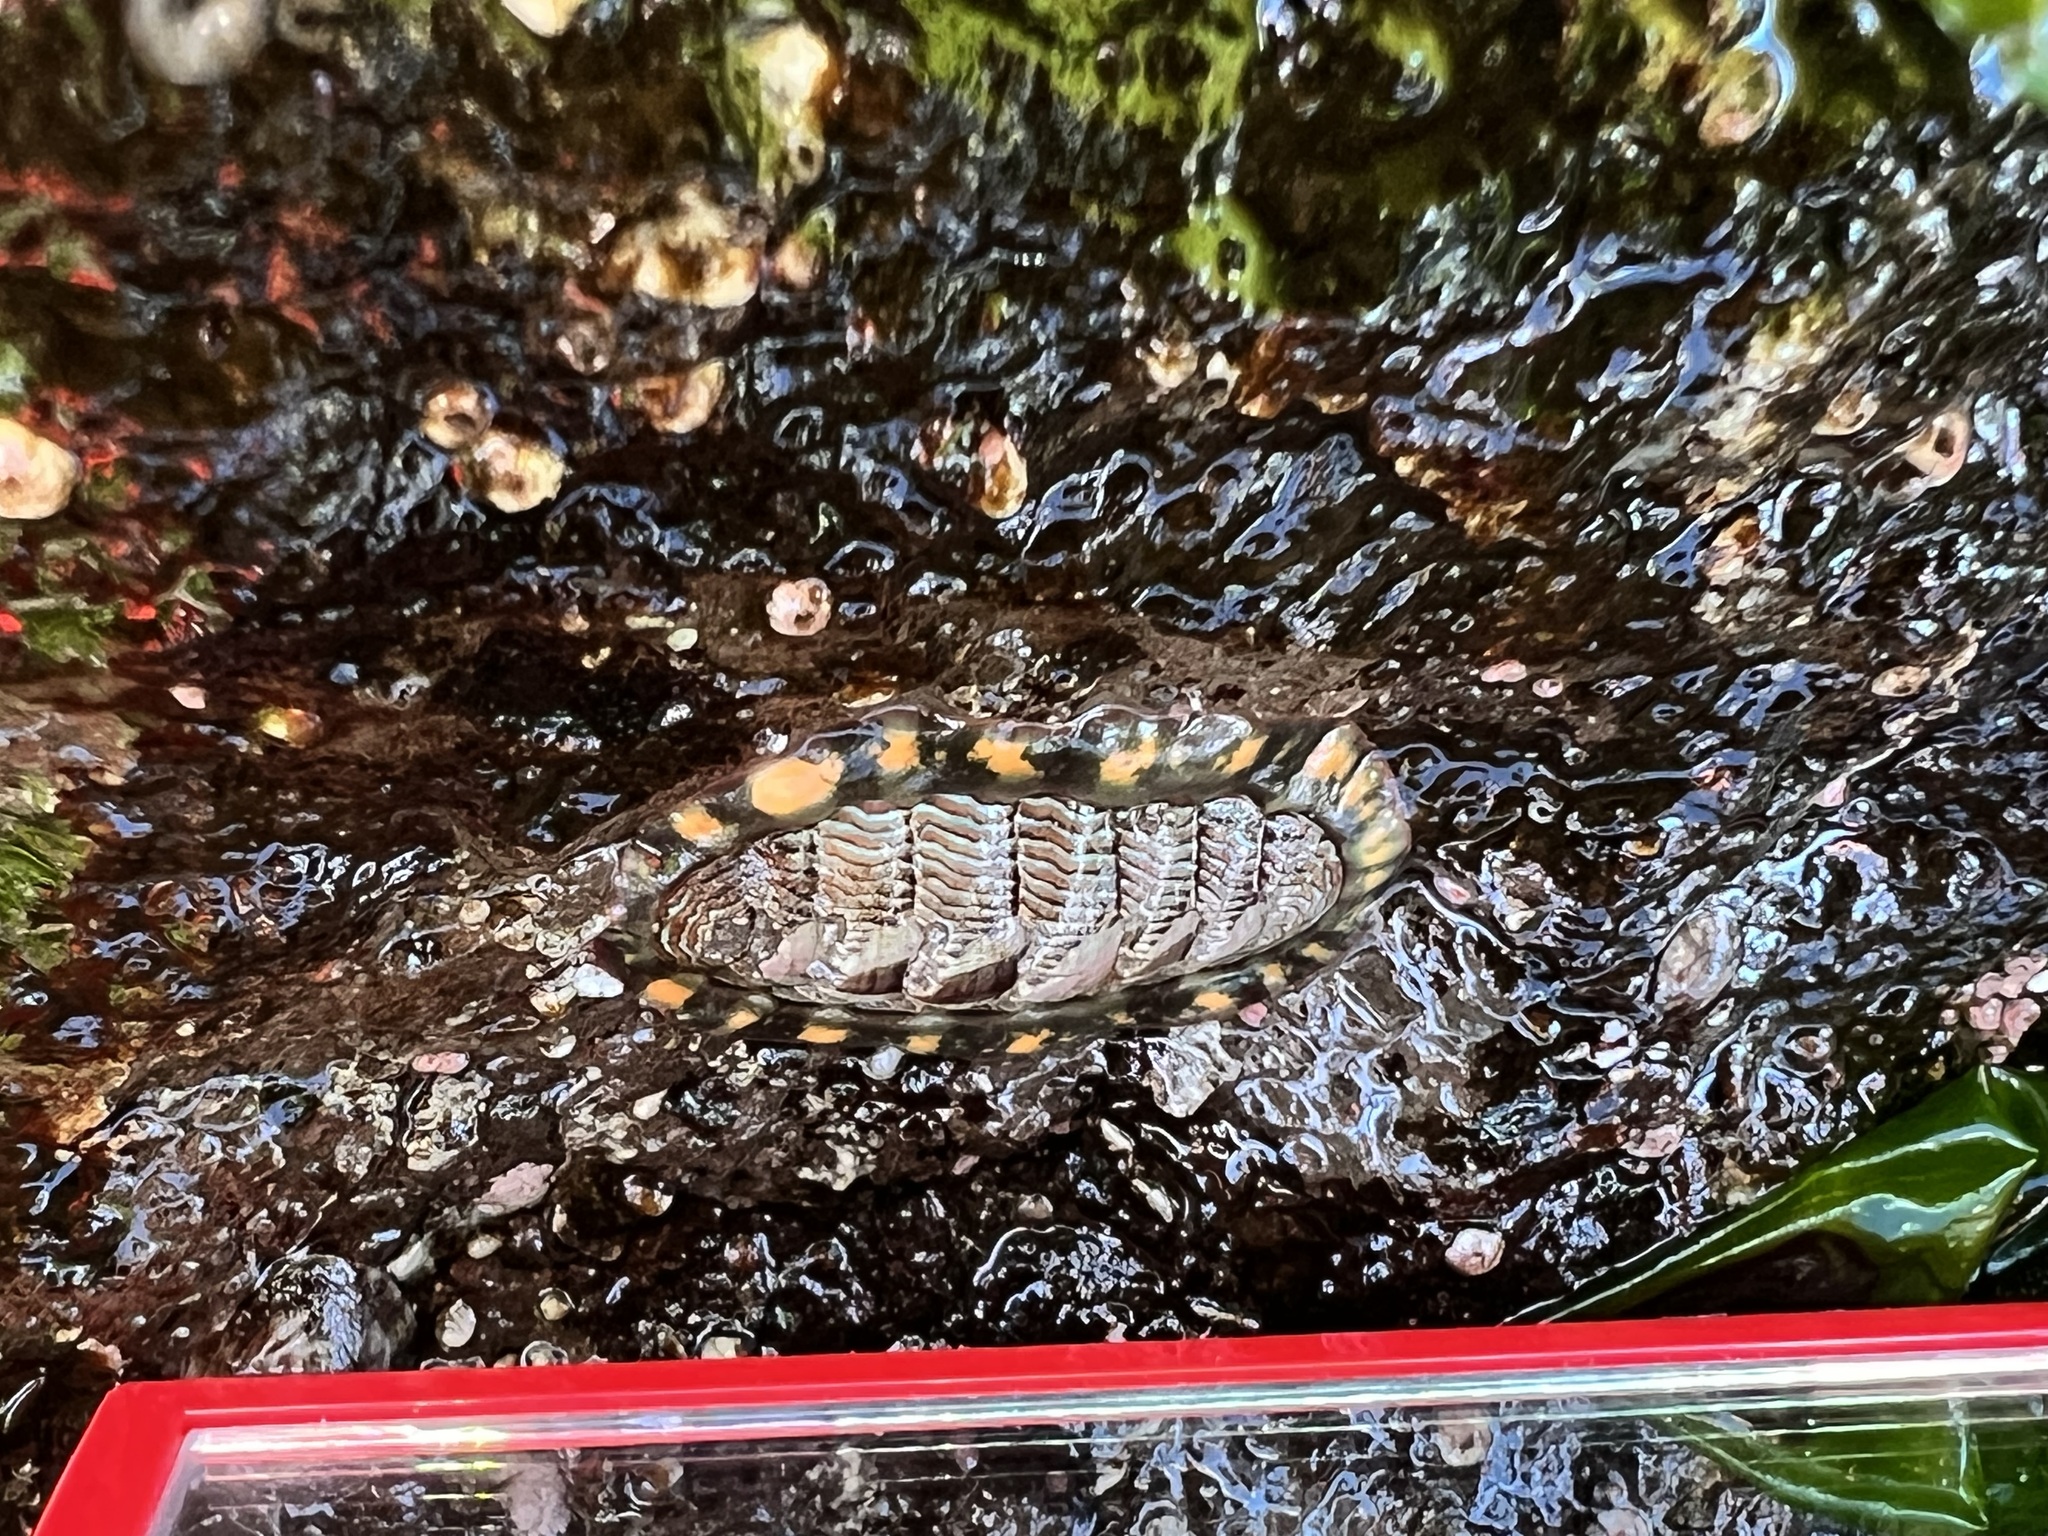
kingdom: Animalia
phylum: Mollusca
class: Polyplacophora
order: Chitonida
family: Tonicellidae
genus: Tonicella
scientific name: Tonicella lineata
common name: Lined chiton
